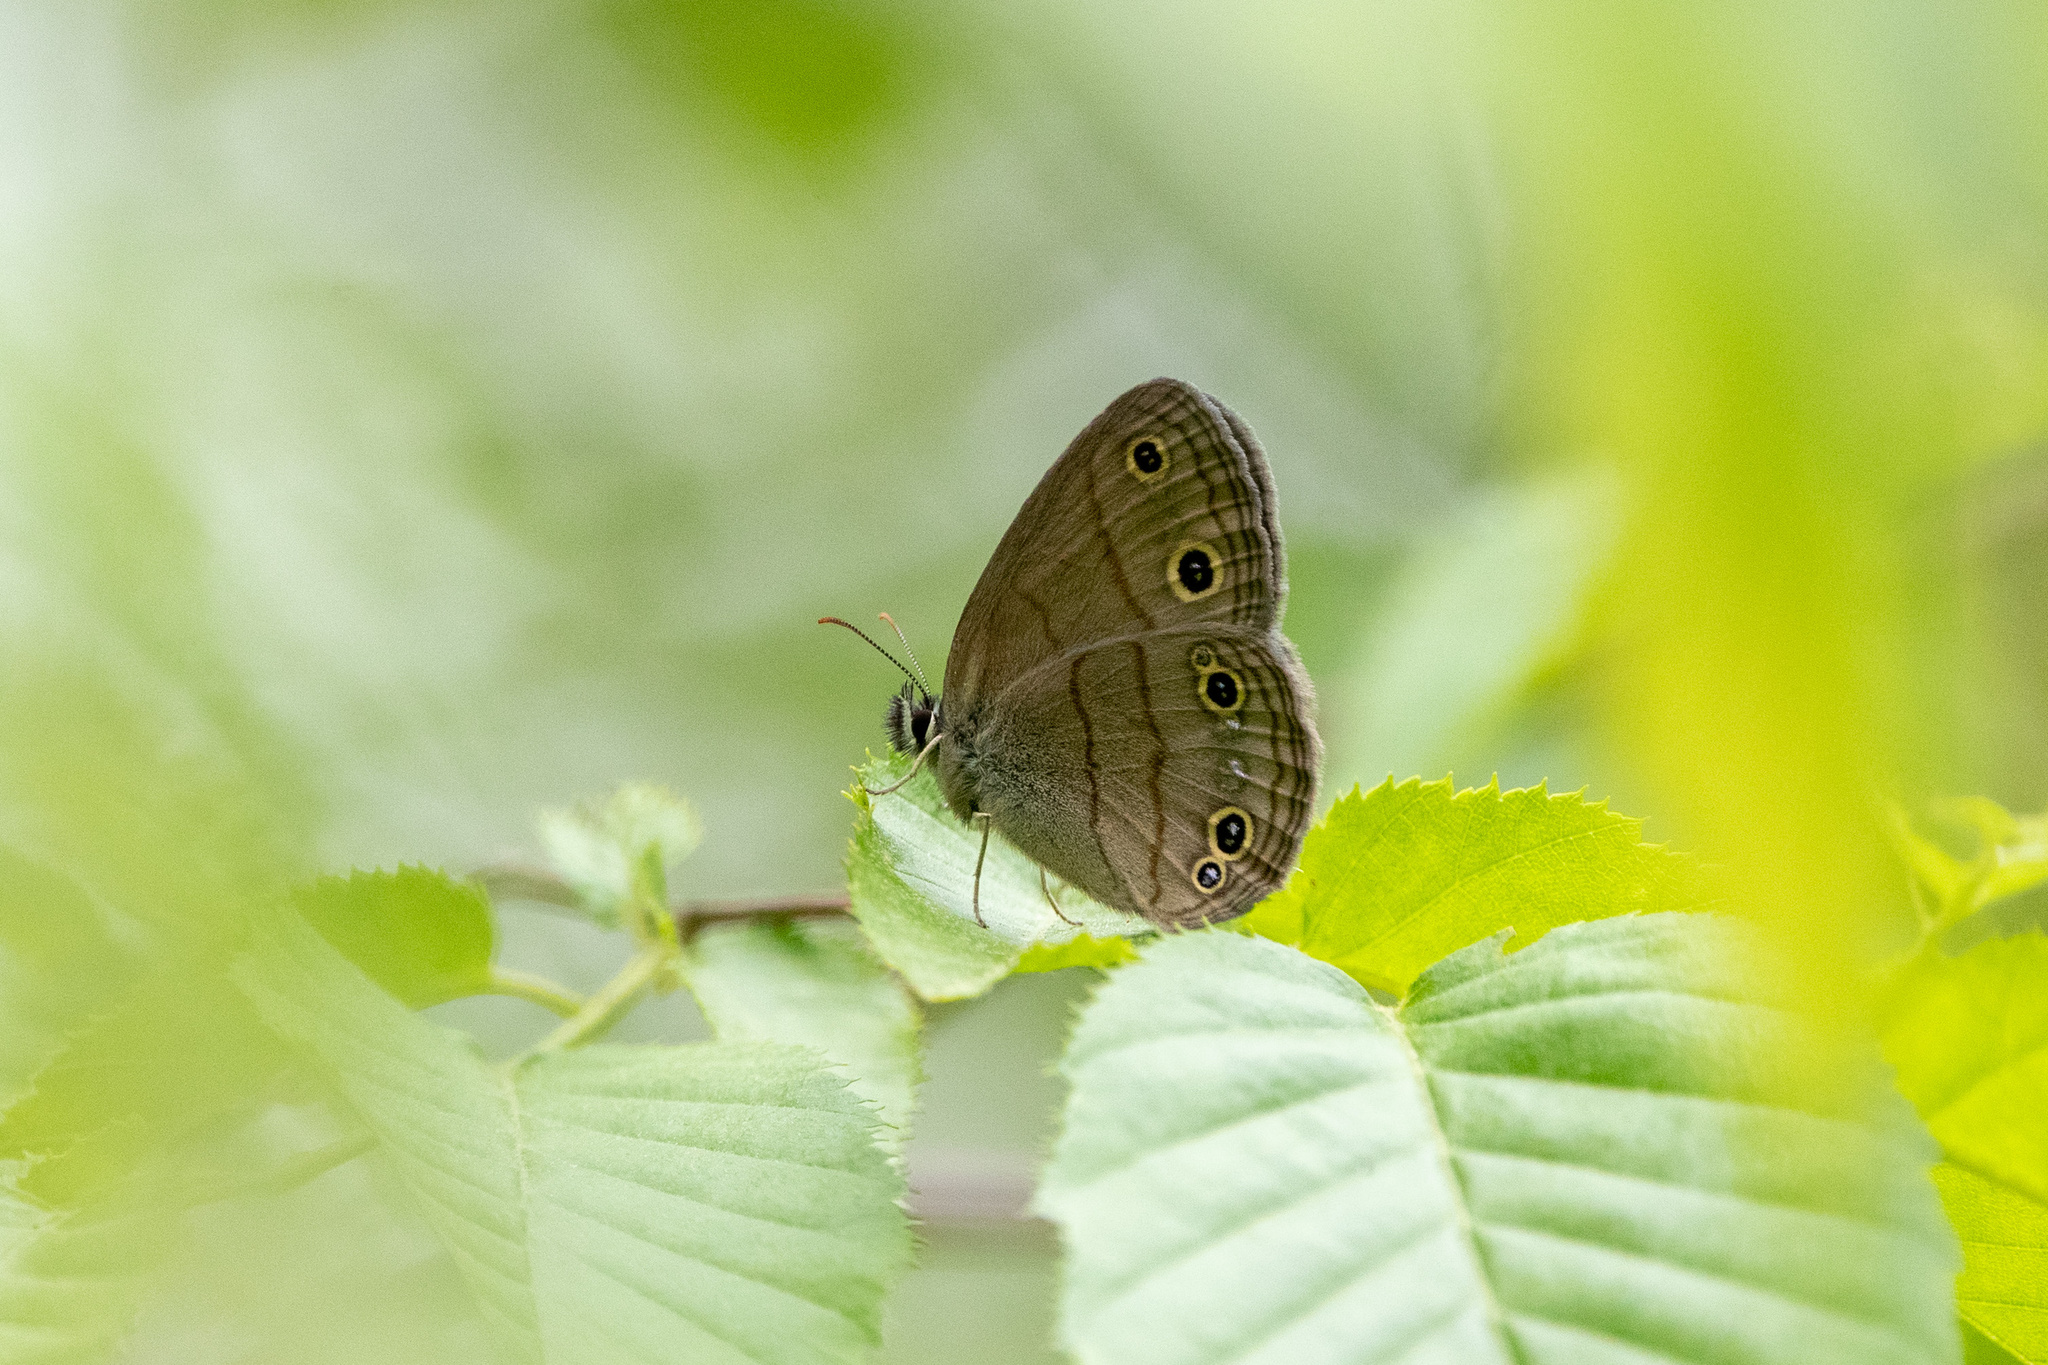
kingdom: Animalia
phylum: Arthropoda
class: Insecta
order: Lepidoptera
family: Nymphalidae
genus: Euptychia
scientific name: Euptychia cymela
